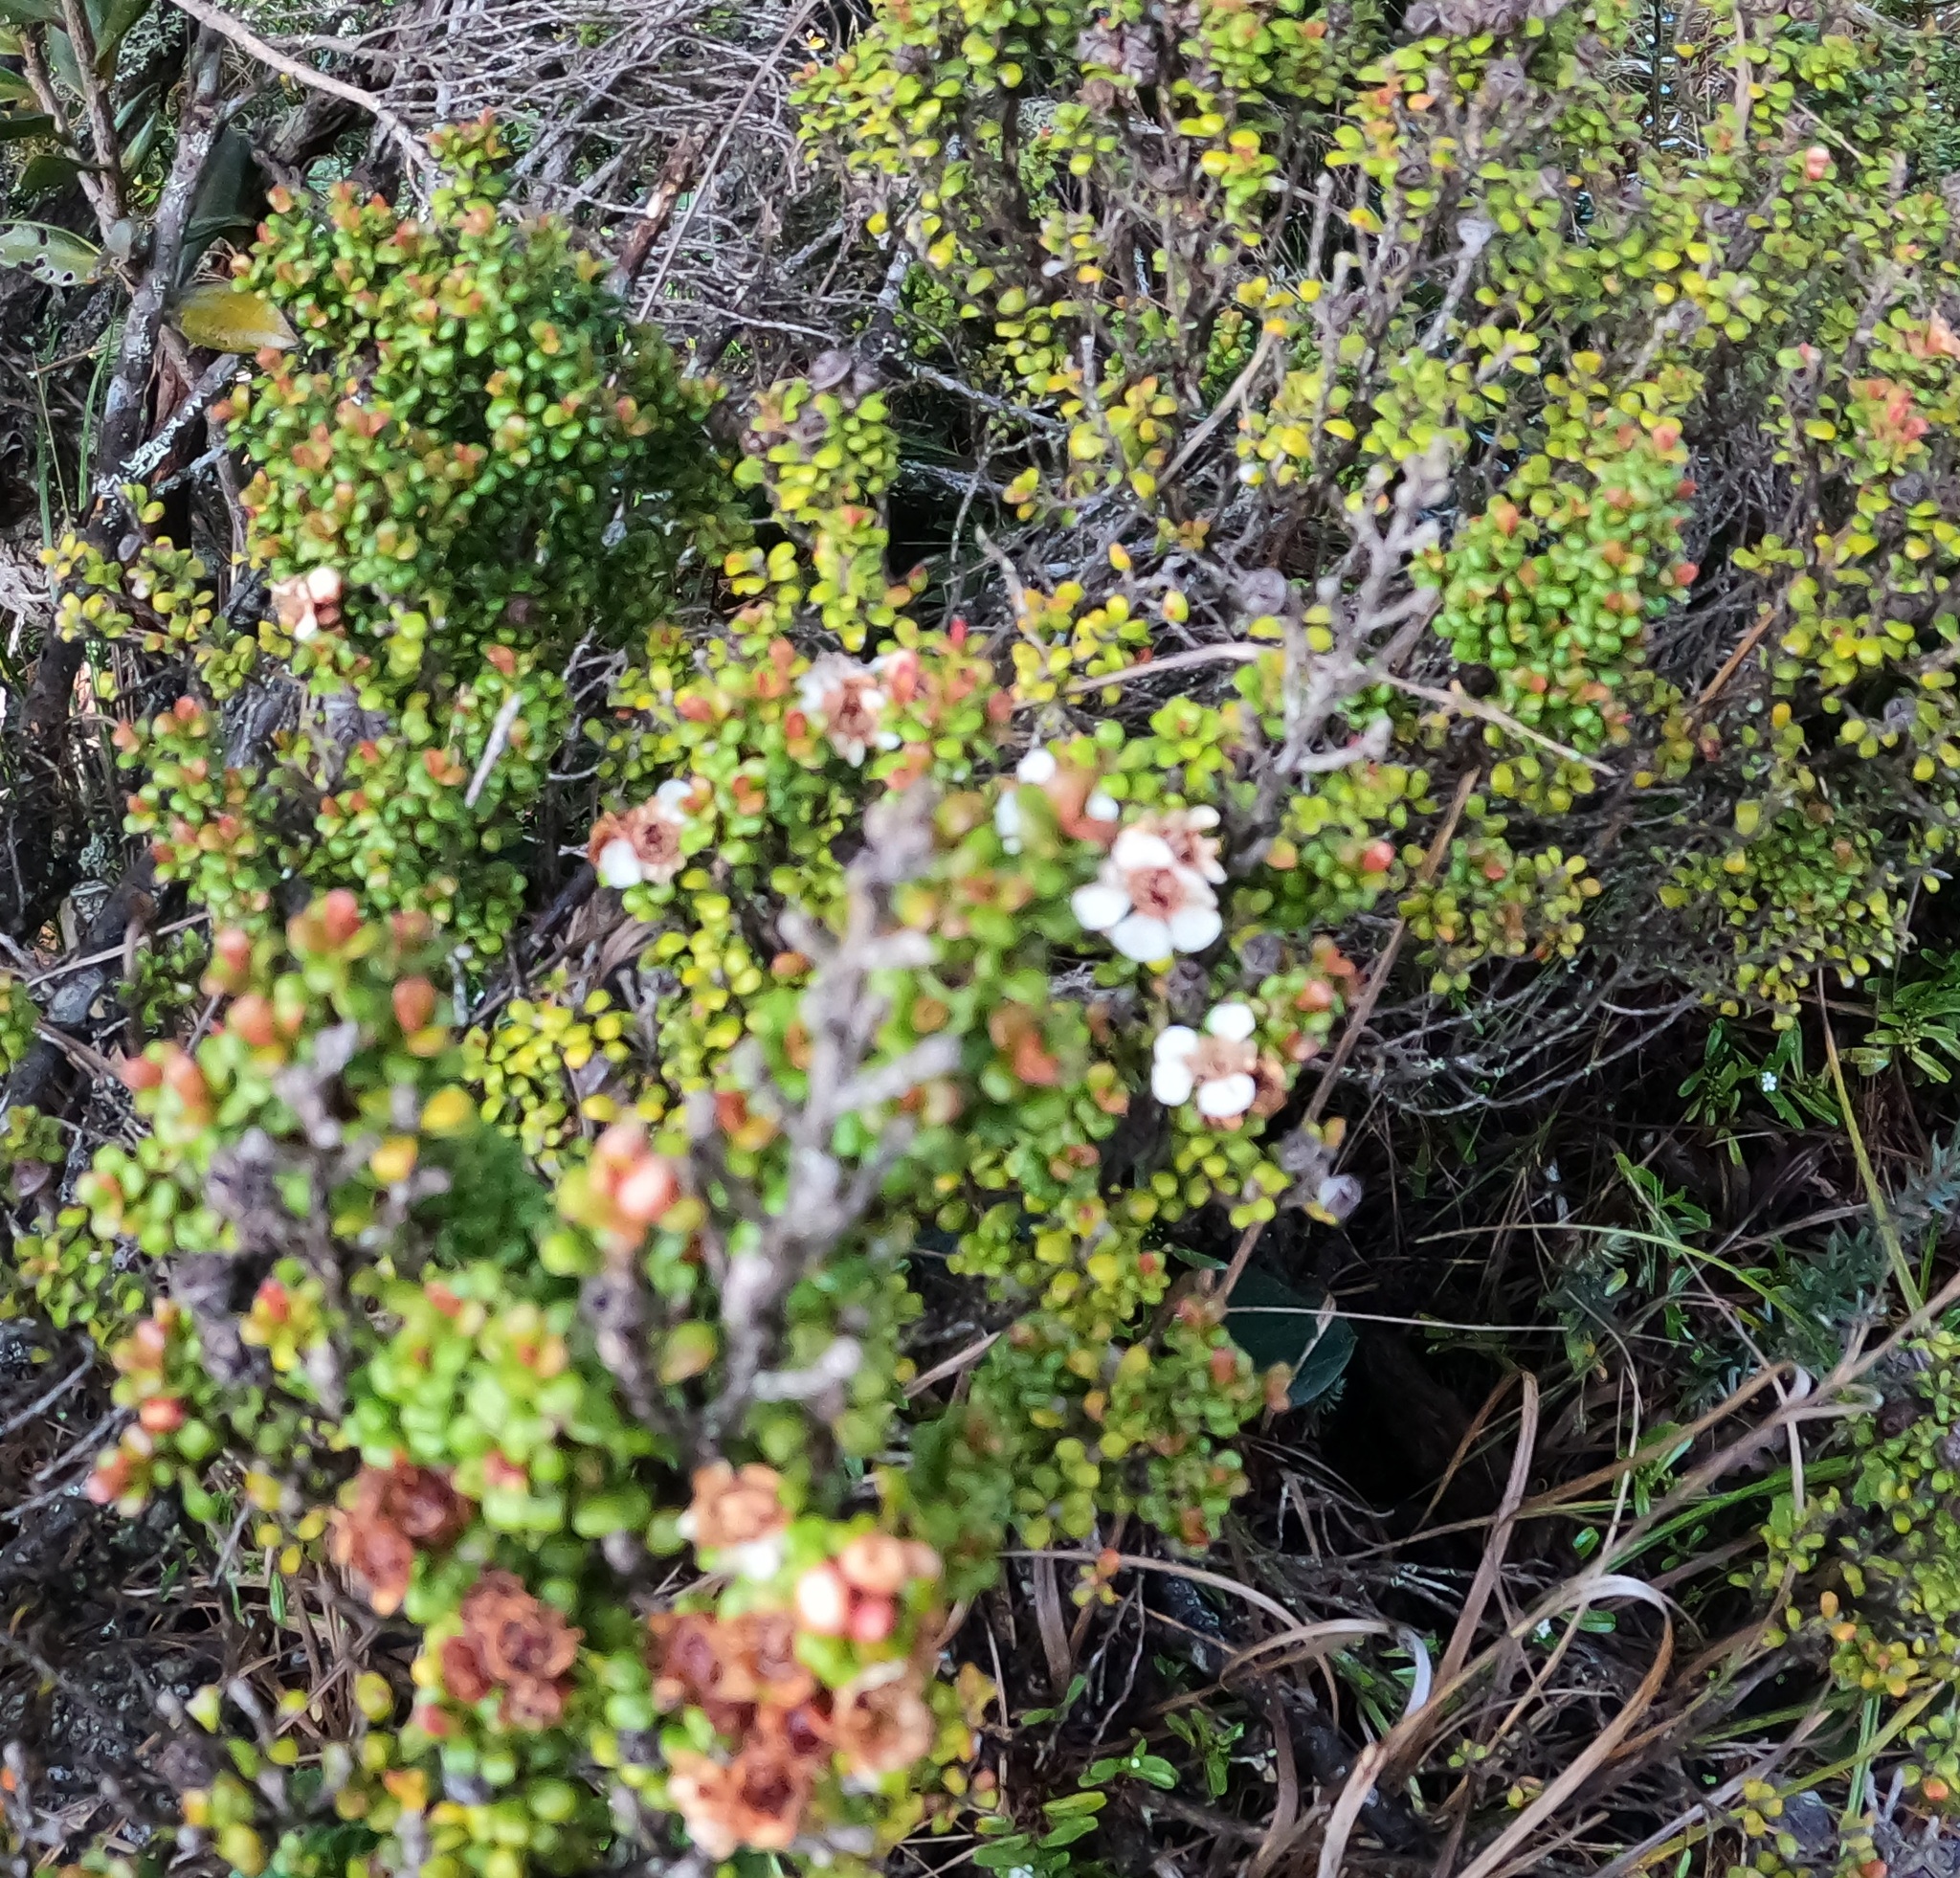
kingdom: Plantae
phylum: Tracheophyta
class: Magnoliopsida
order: Myrtales
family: Myrtaceae
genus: Leptospermum
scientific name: Leptospermum recurvum
